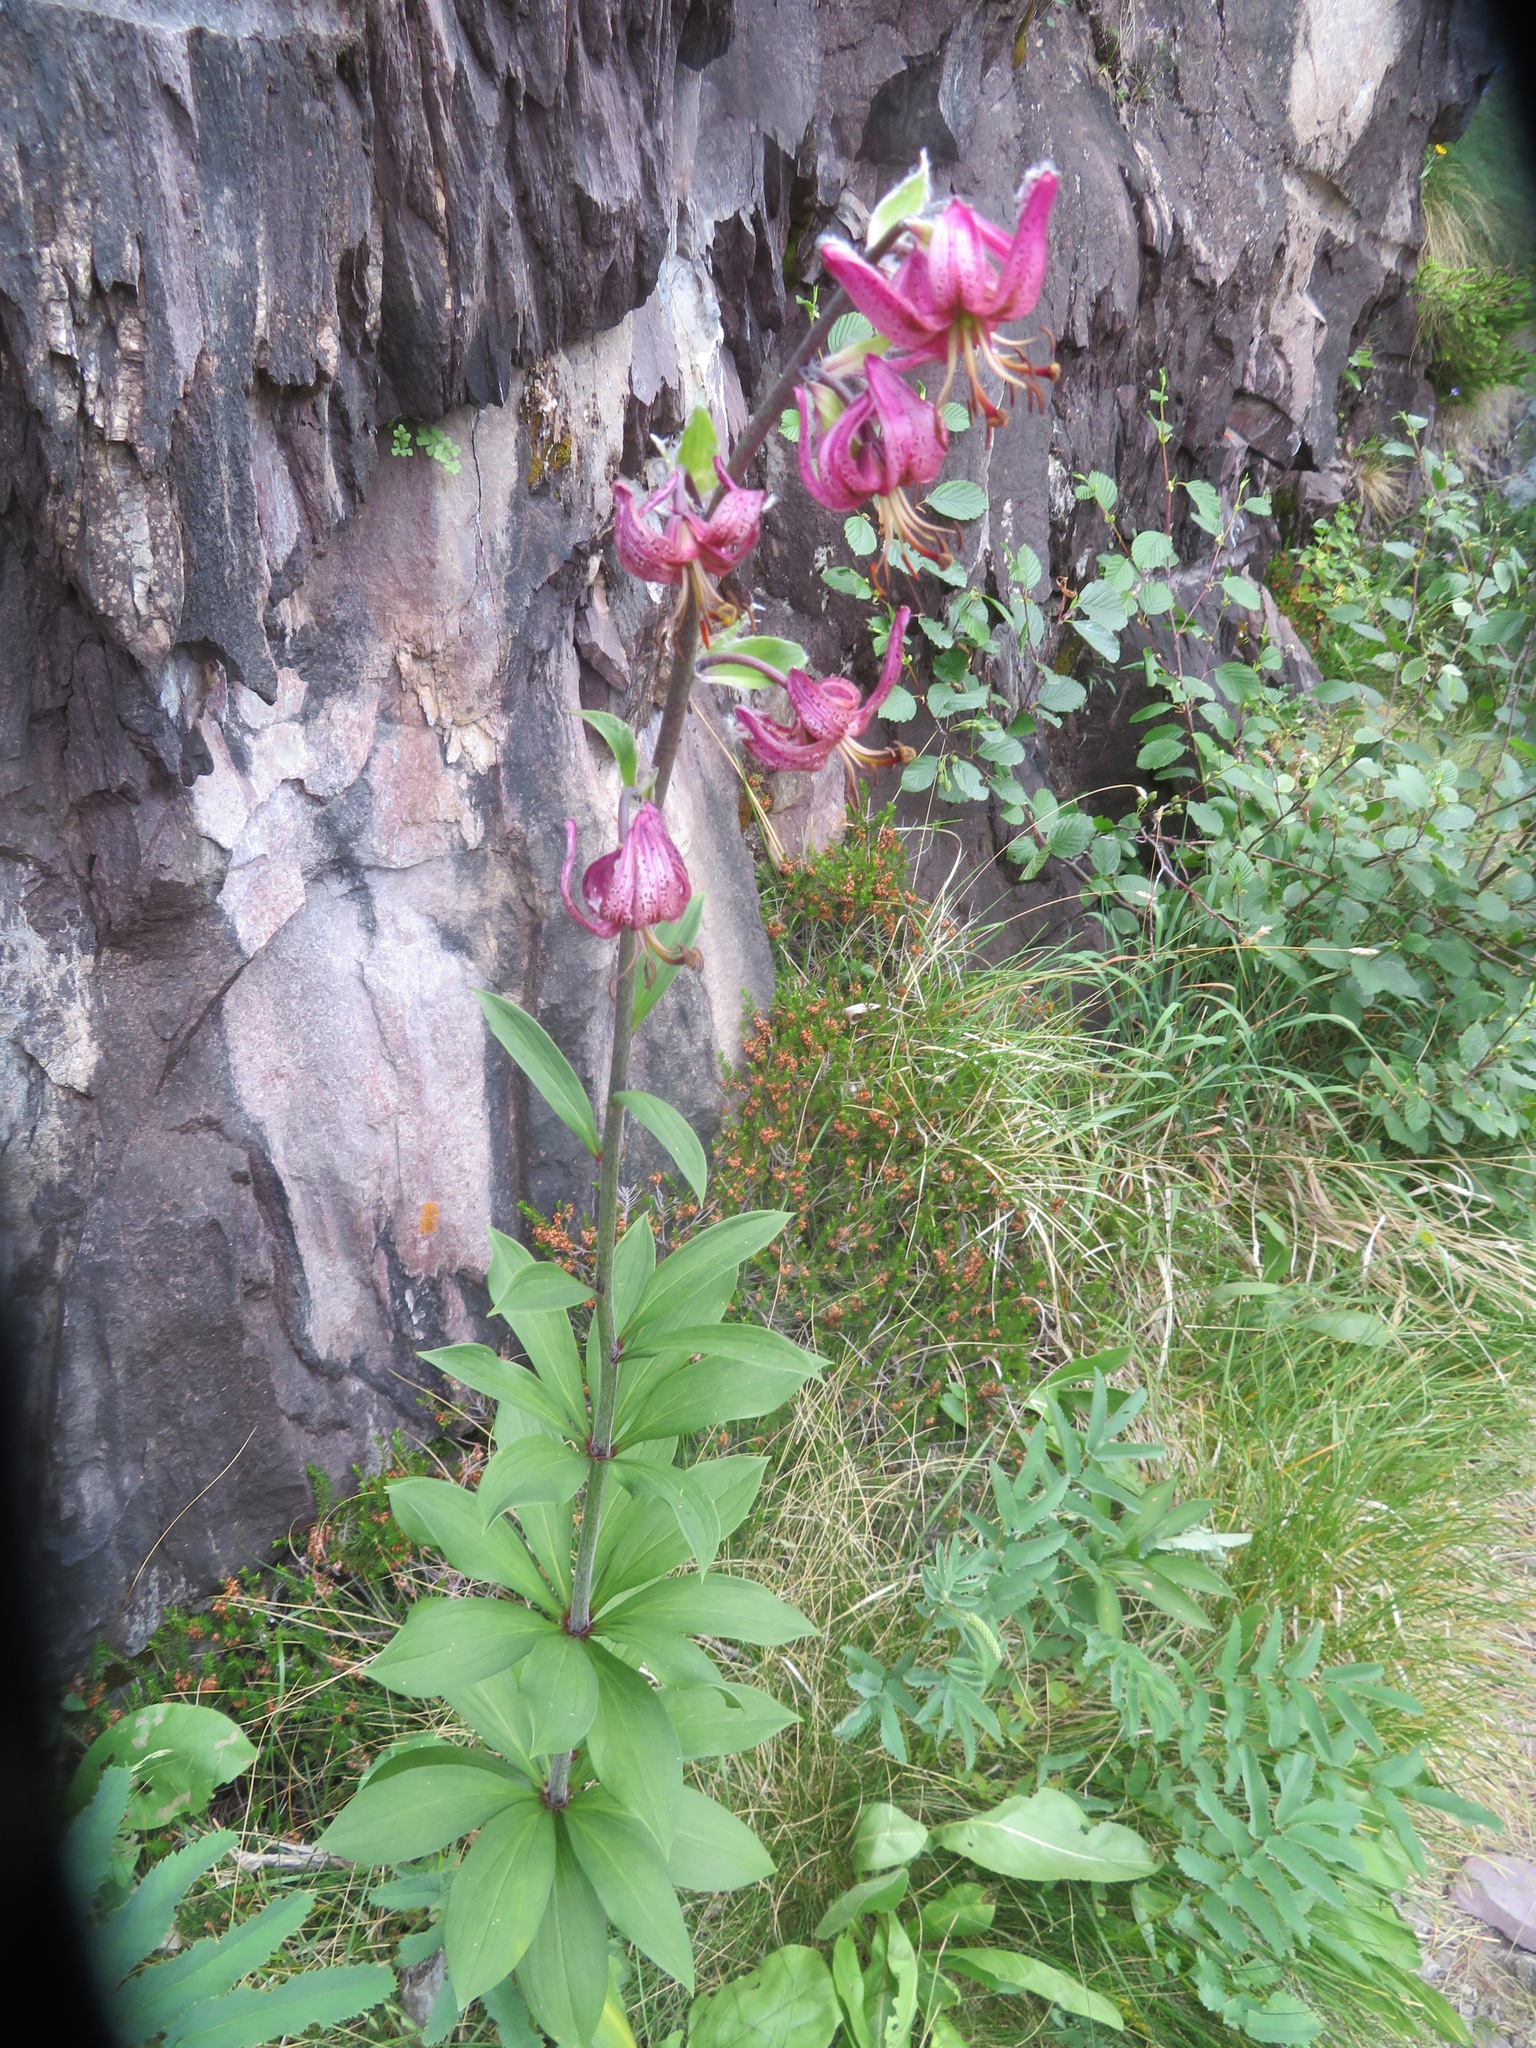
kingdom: Plantae
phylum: Tracheophyta
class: Liliopsida
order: Liliales
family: Liliaceae
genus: Lilium
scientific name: Lilium martagon
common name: Martagon lily
